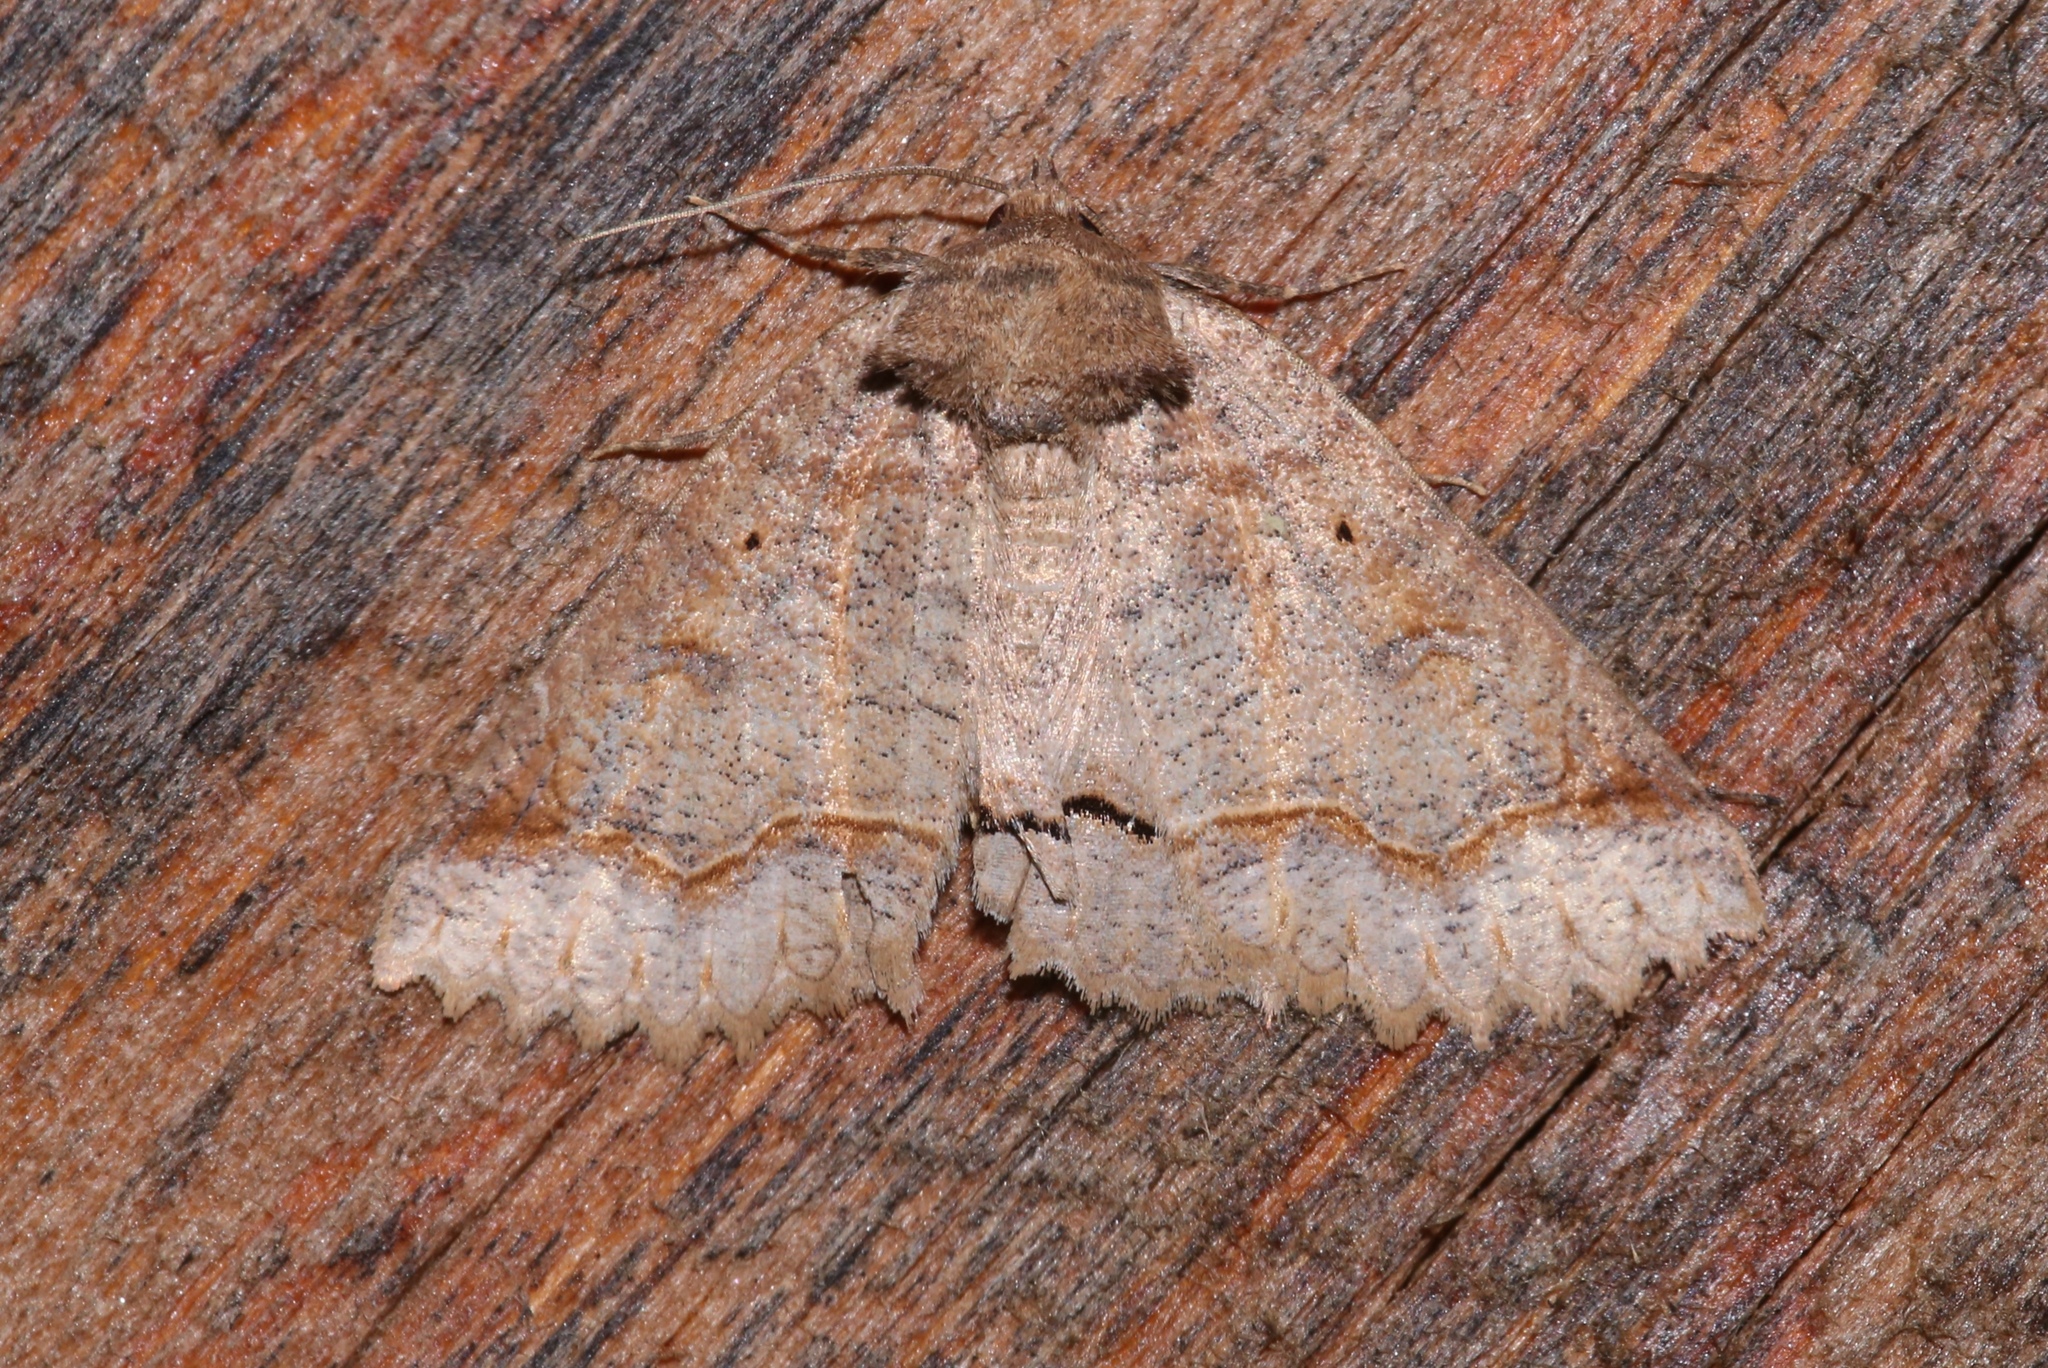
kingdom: Animalia
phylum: Arthropoda
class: Insecta
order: Lepidoptera
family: Erebidae
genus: Zale
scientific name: Zale unilineata
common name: One-lined zale moth
